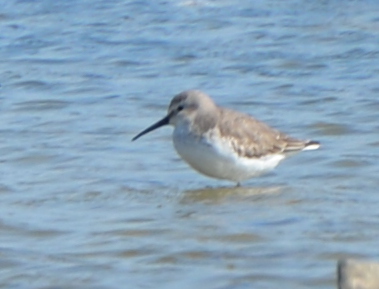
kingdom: Animalia
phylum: Chordata
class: Aves
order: Charadriiformes
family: Scolopacidae
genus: Calidris
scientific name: Calidris alpina
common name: Dunlin
